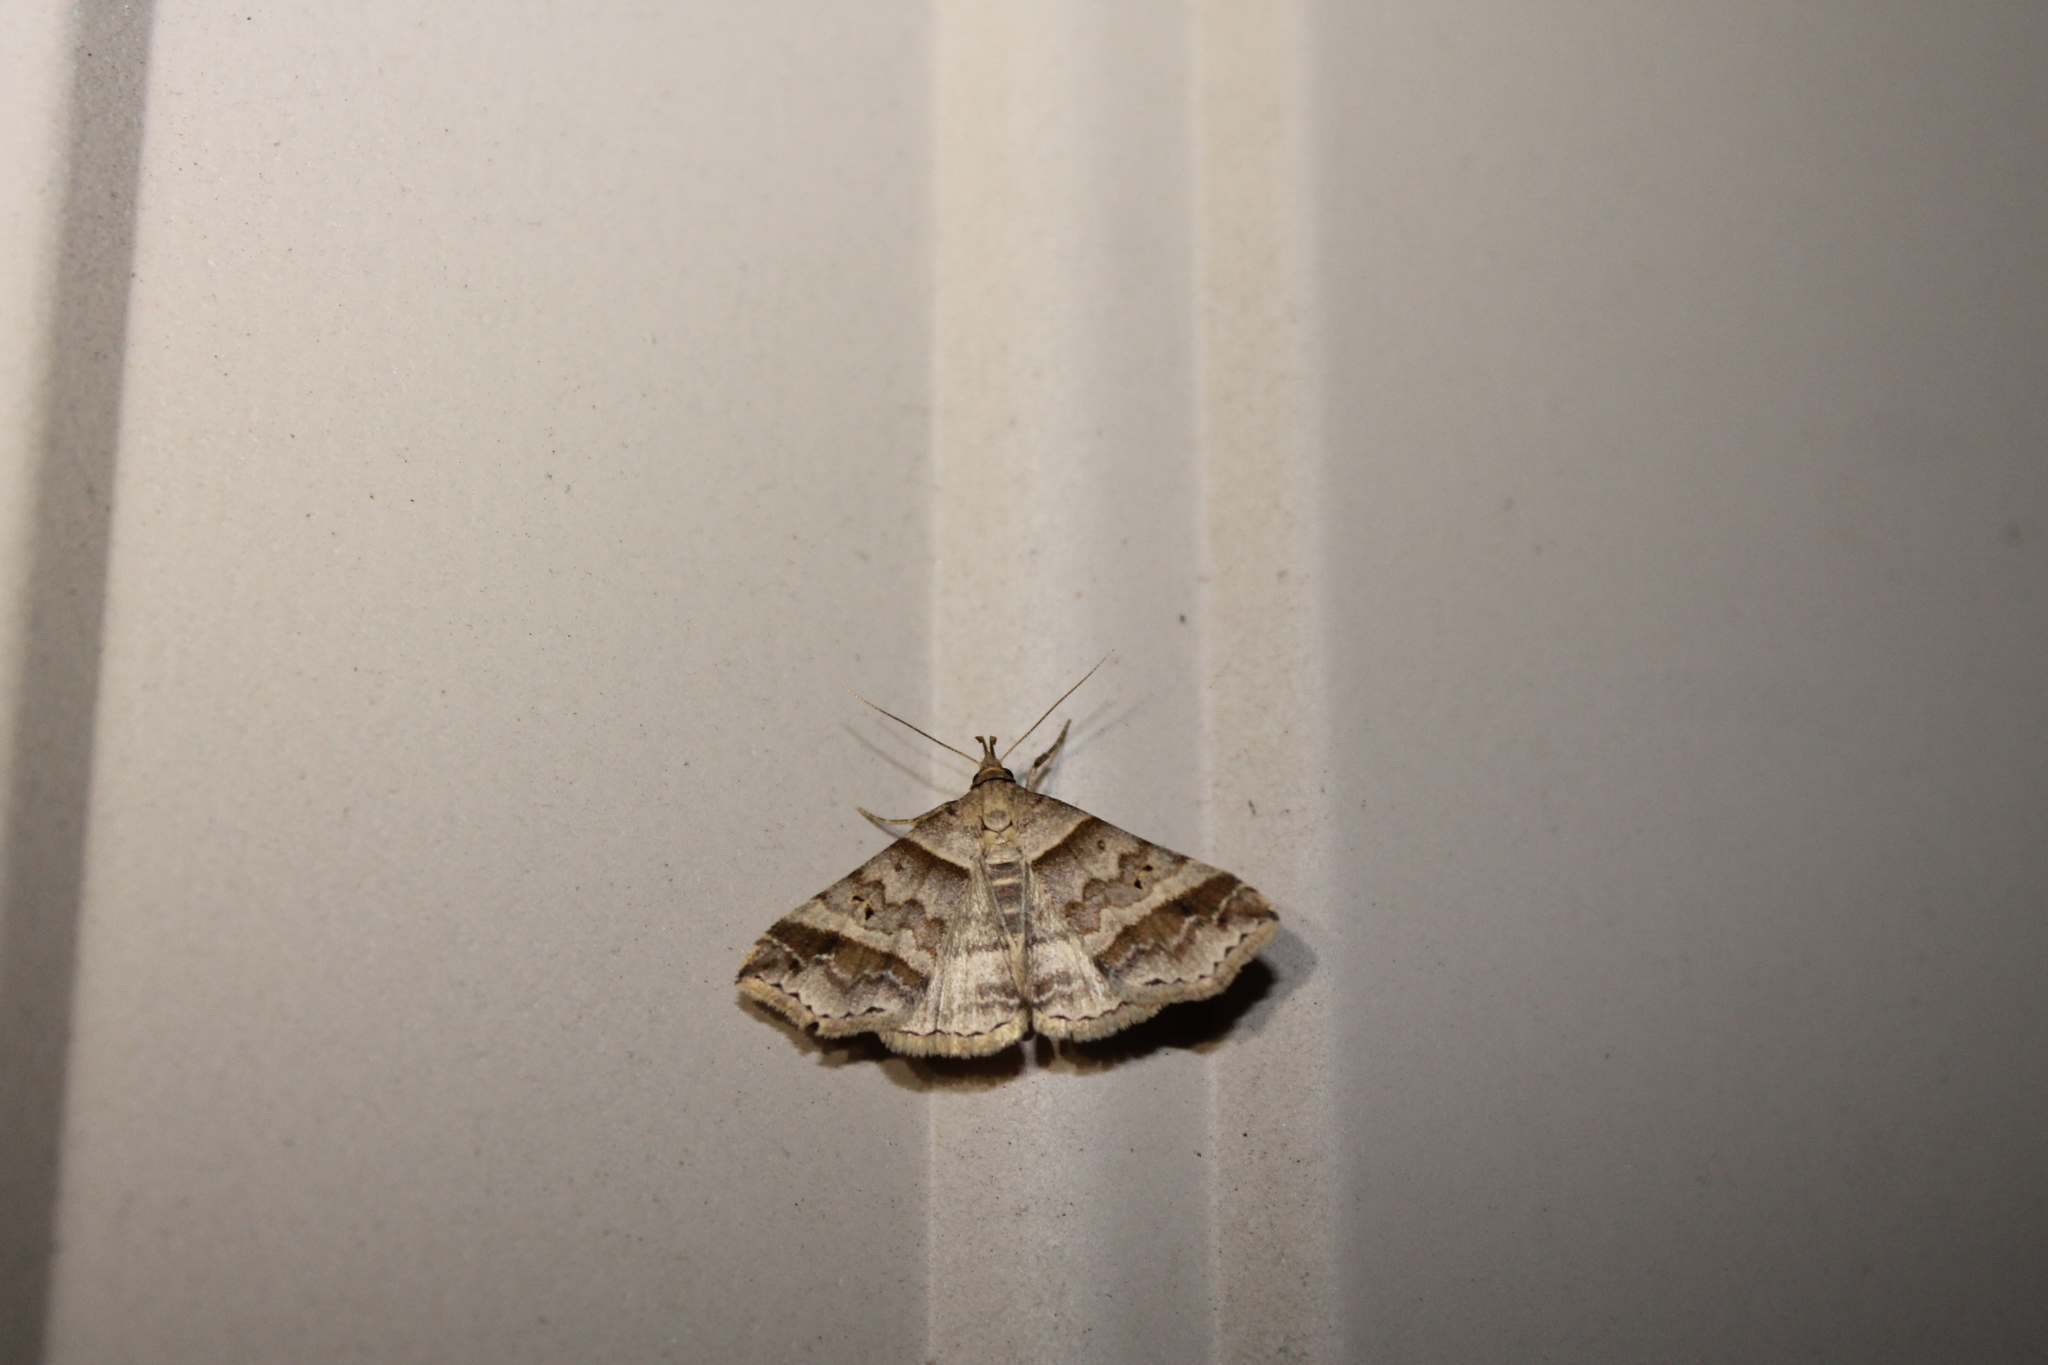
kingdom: Animalia
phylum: Arthropoda
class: Insecta
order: Lepidoptera
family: Erebidae
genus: Phaeolita
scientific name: Phaeolita pyramusalis
